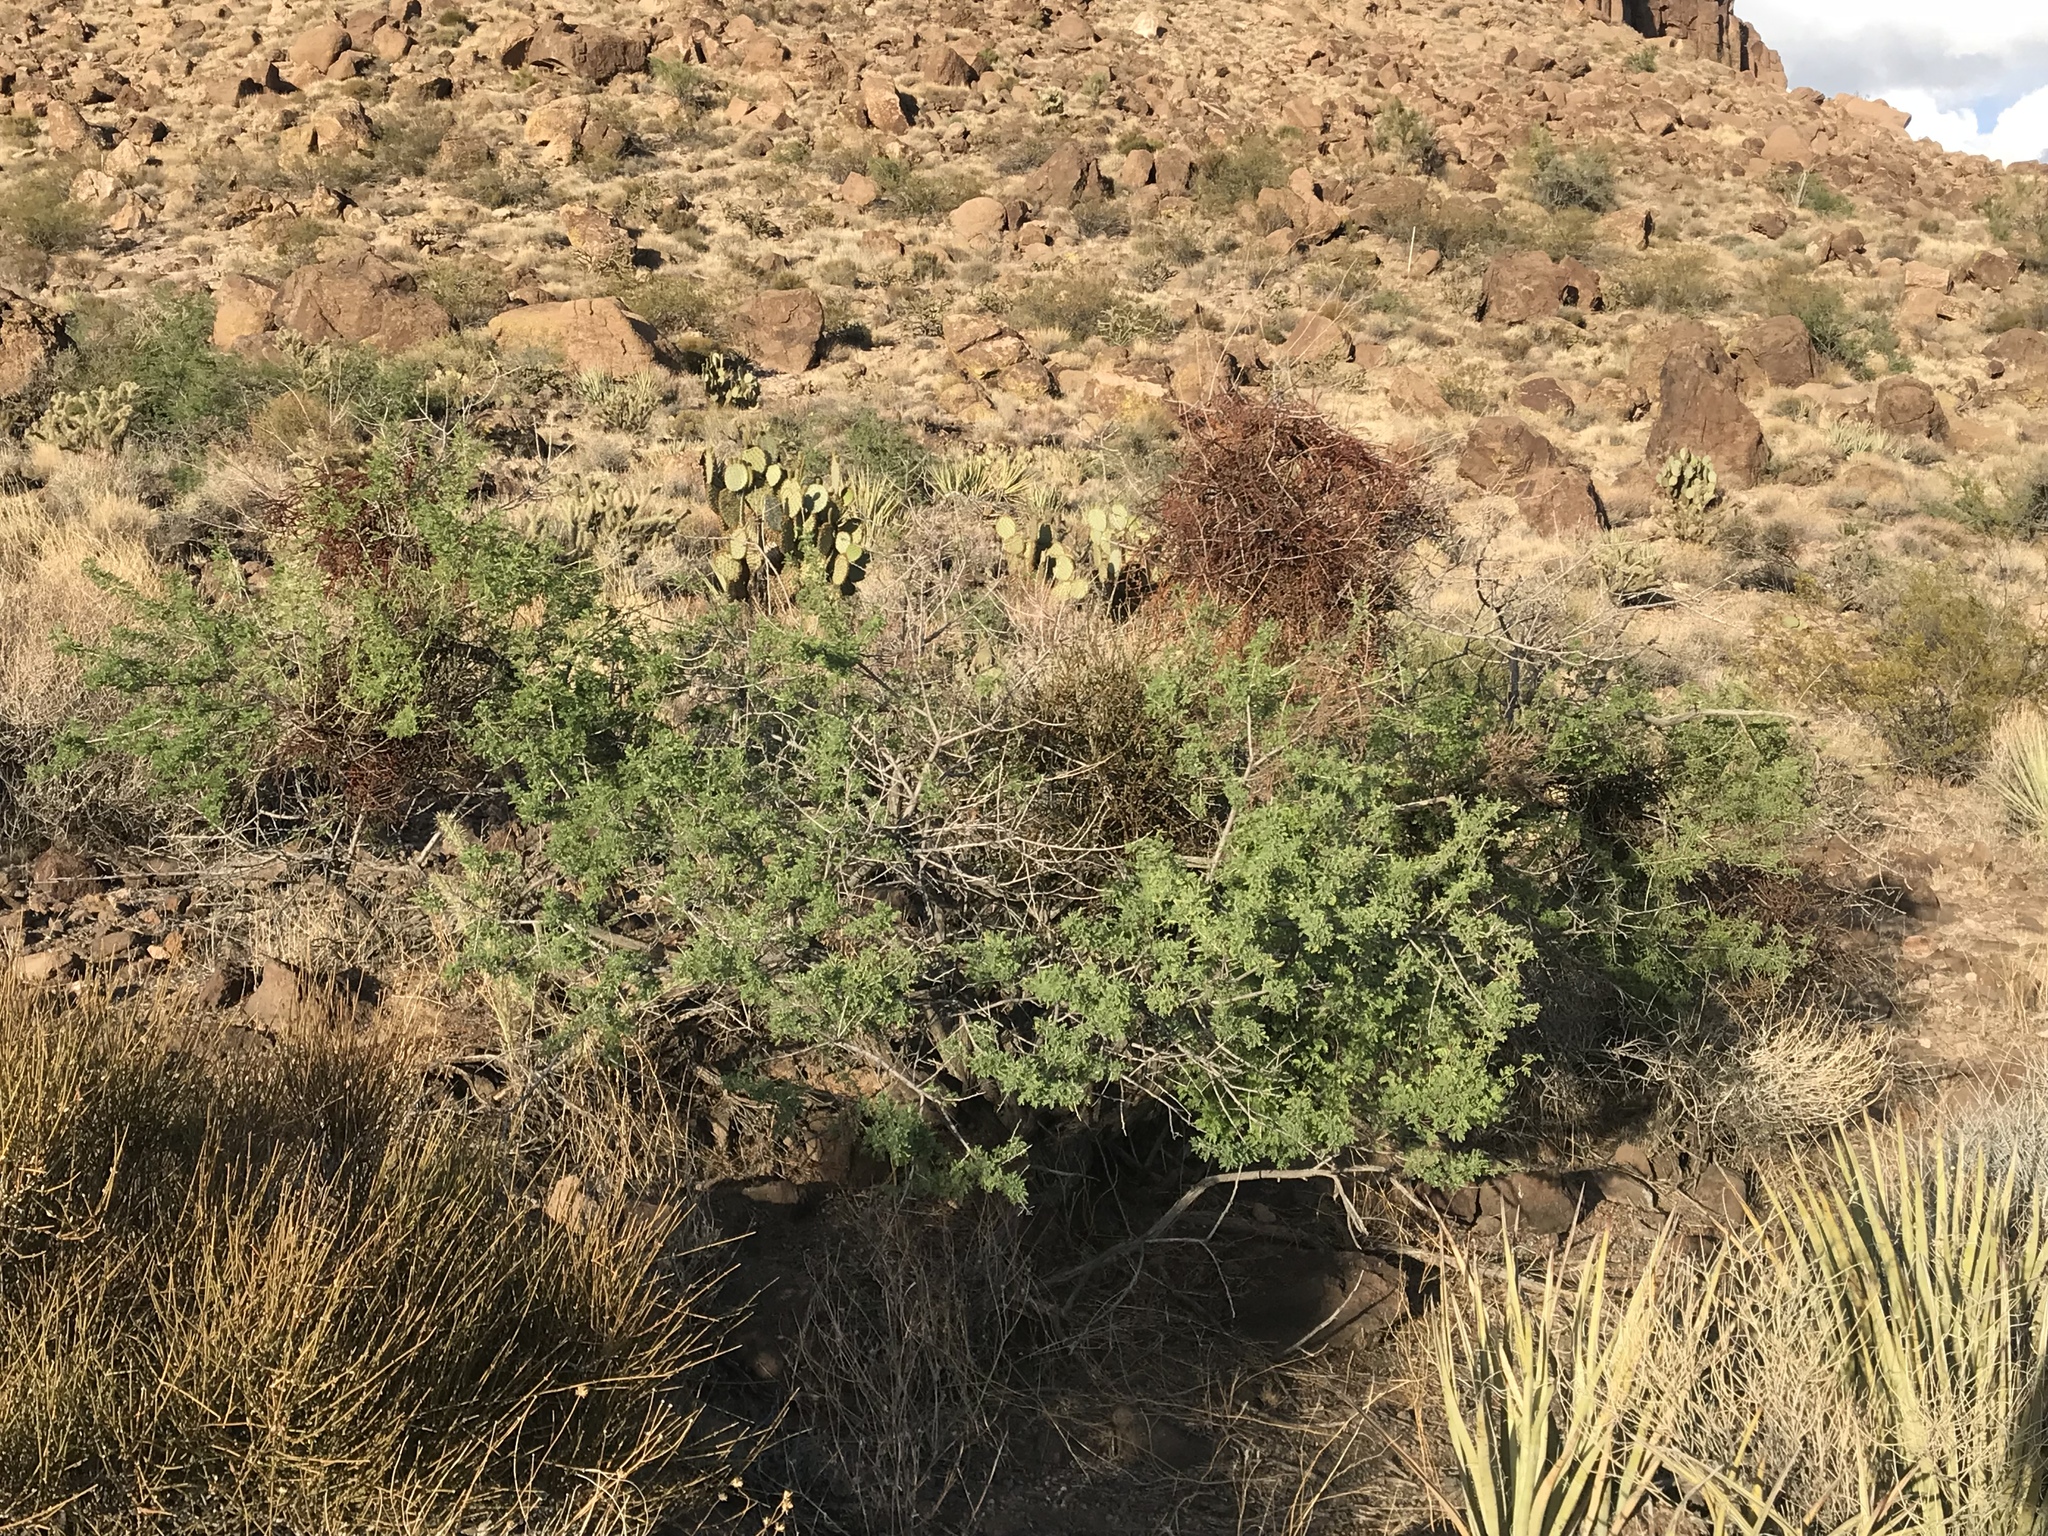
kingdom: Plantae
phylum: Tracheophyta
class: Magnoliopsida
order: Santalales
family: Viscaceae
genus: Phoradendron
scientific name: Phoradendron californicum
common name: Acacia mistletoe
